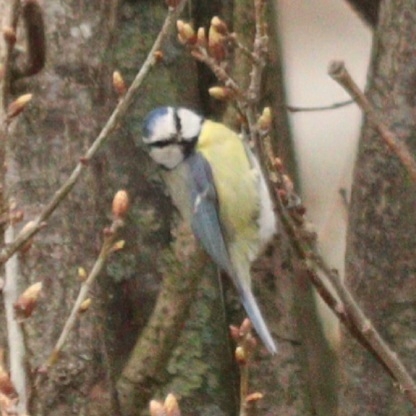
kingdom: Animalia
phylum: Chordata
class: Aves
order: Passeriformes
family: Paridae
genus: Cyanistes
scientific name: Cyanistes caeruleus
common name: Eurasian blue tit
